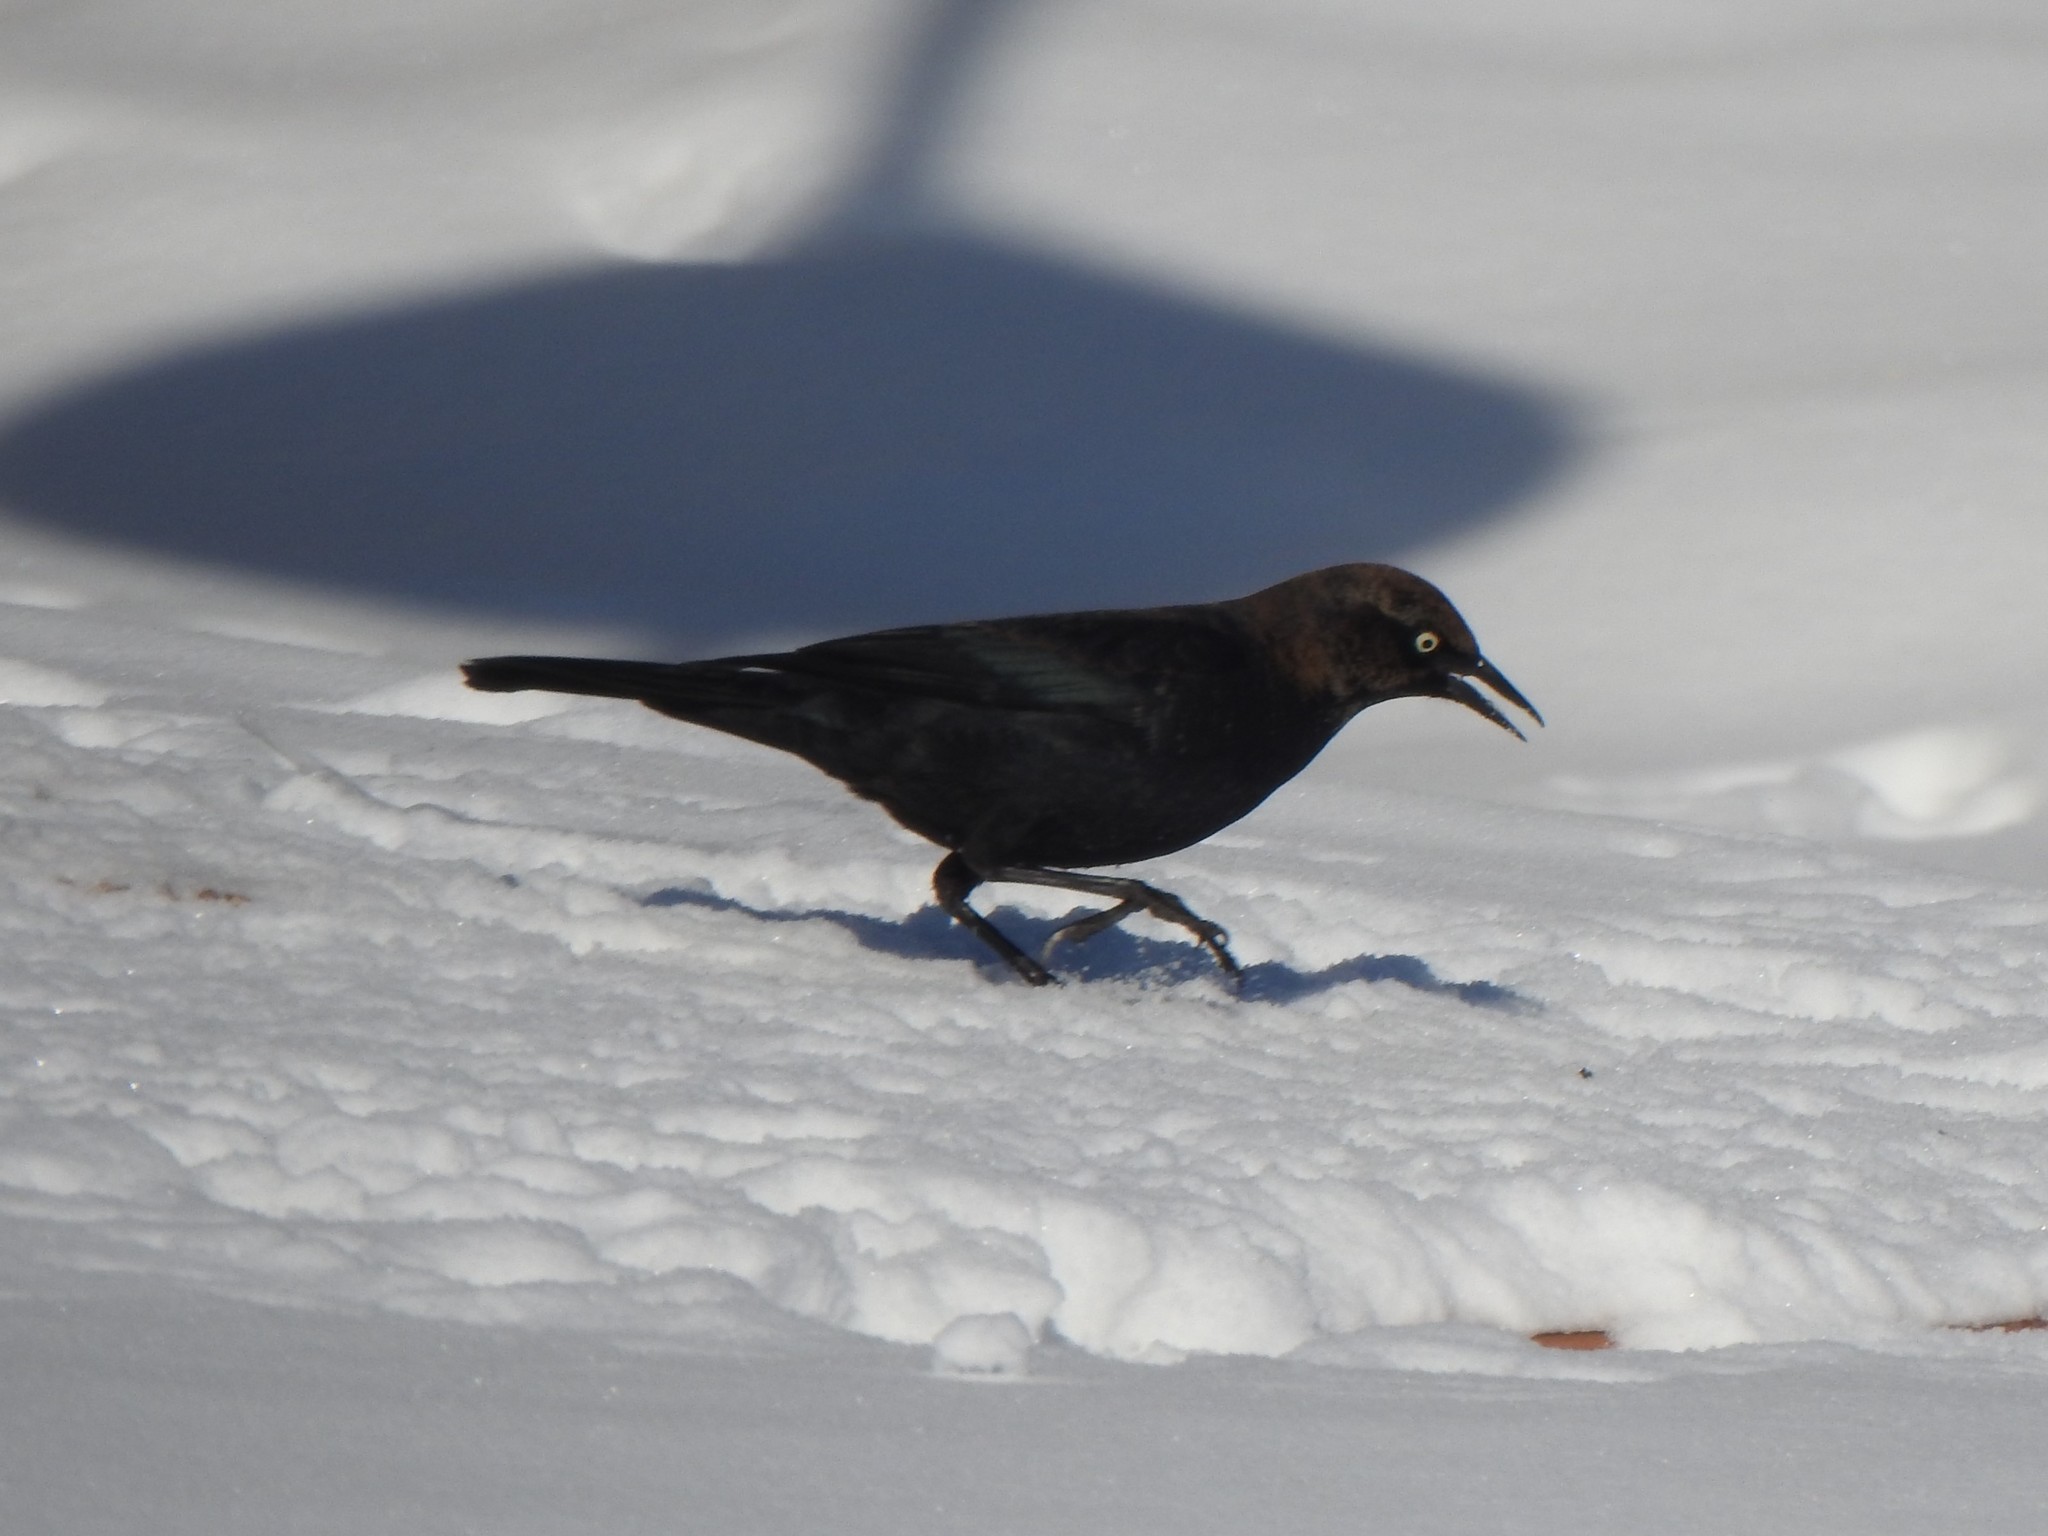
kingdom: Animalia
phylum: Chordata
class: Aves
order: Passeriformes
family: Icteridae
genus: Euphagus
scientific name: Euphagus carolinus
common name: Rusty blackbird
